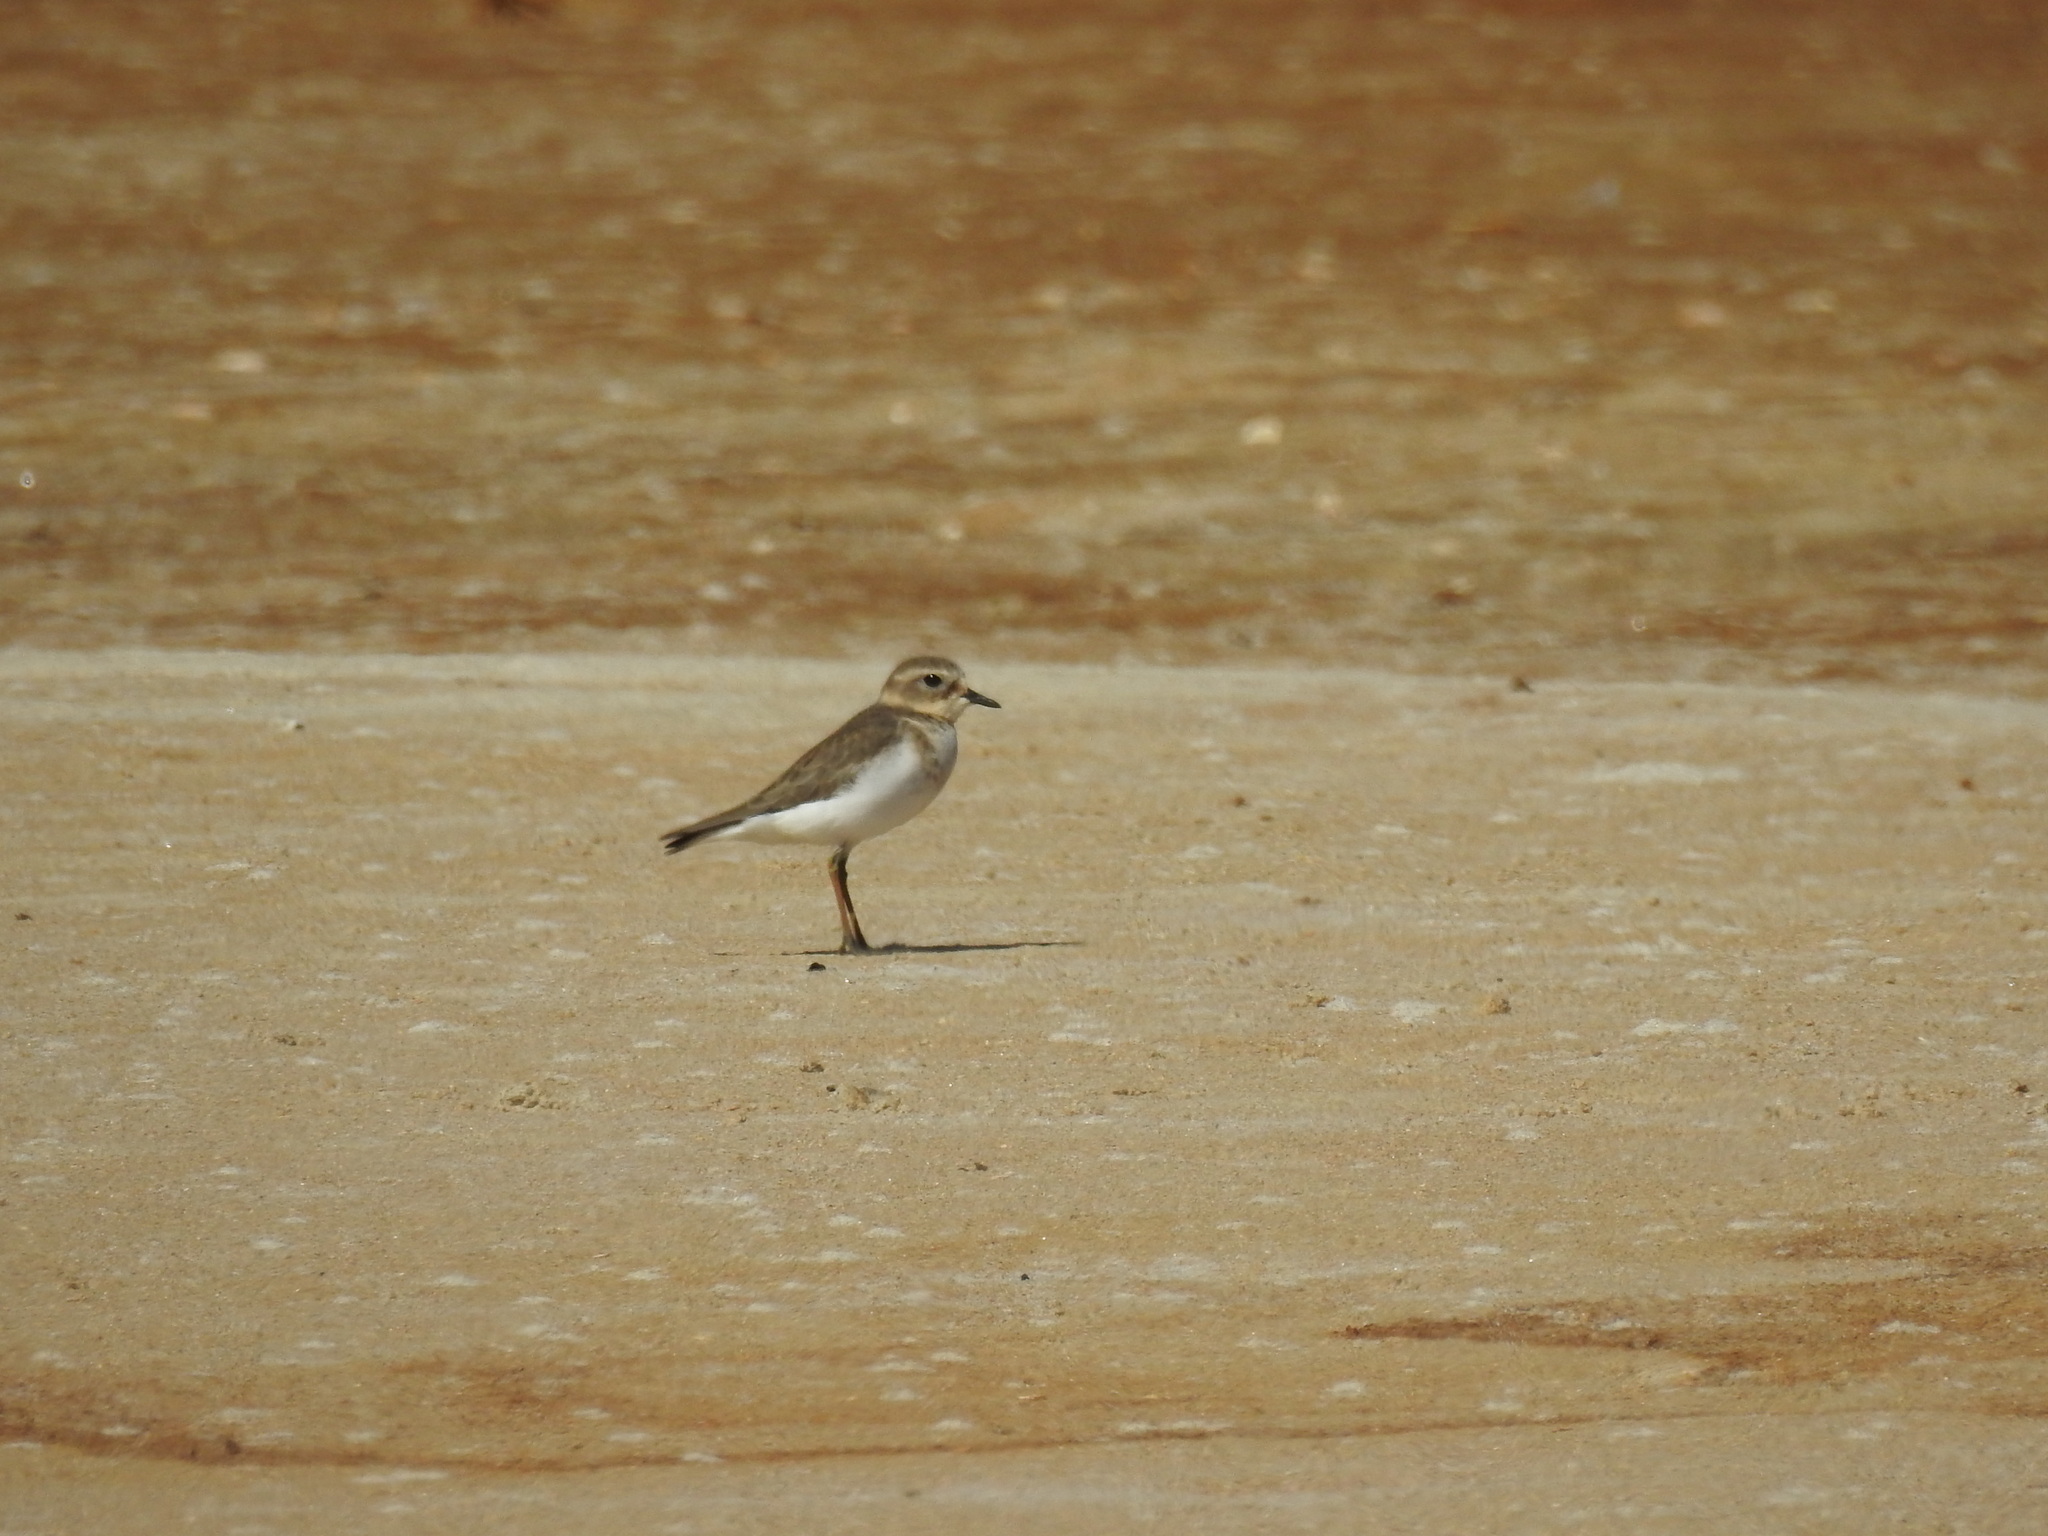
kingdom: Animalia
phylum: Chordata
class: Aves
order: Charadriiformes
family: Charadriidae
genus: Anarhynchus
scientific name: Anarhynchus
